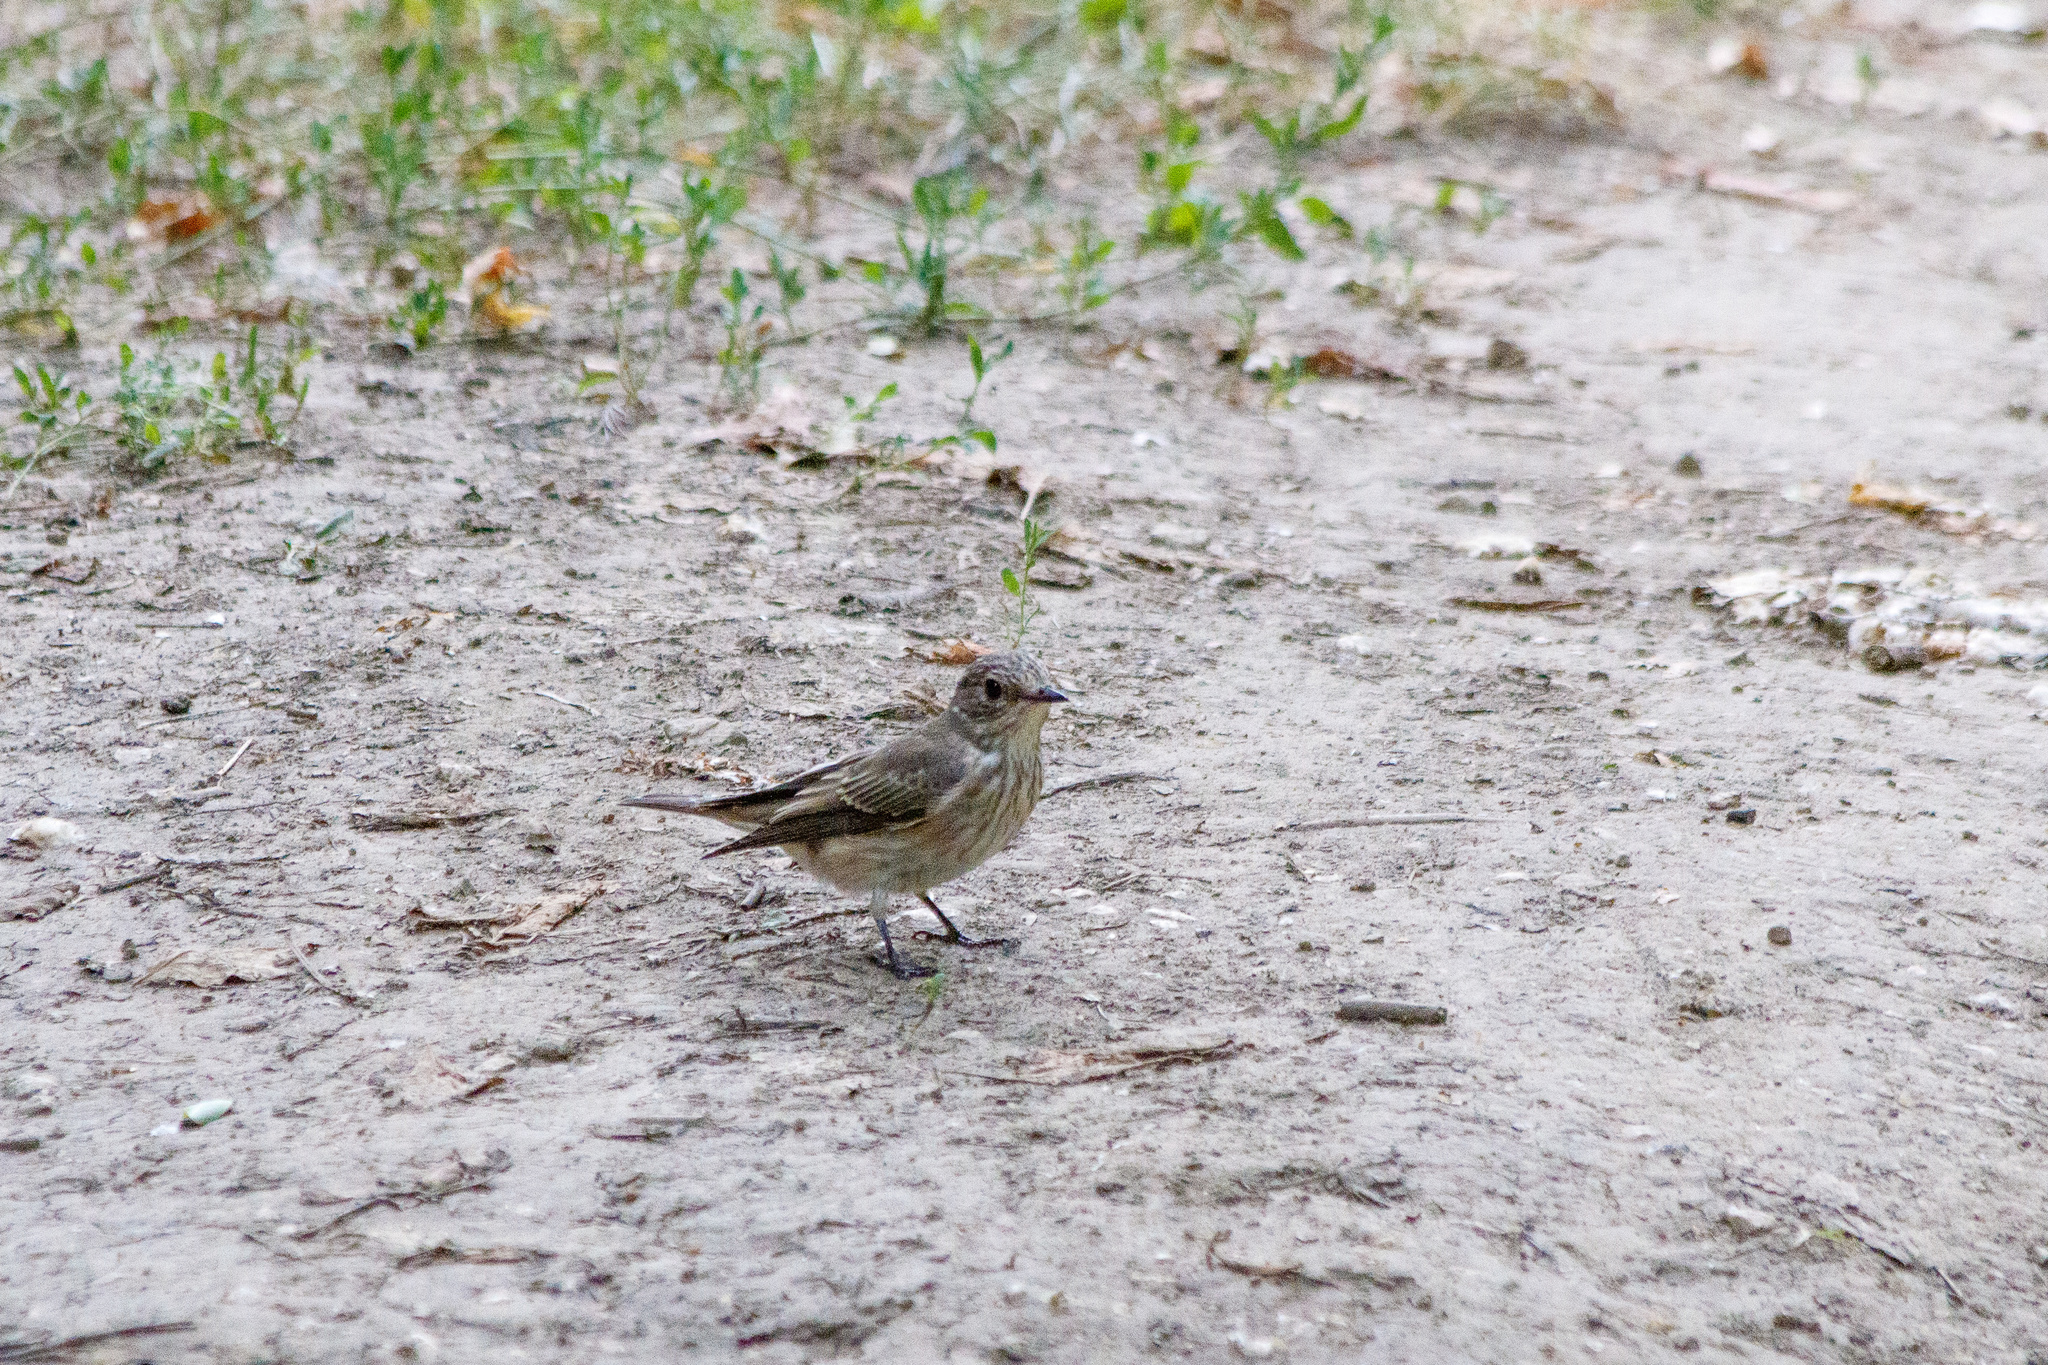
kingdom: Animalia
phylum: Chordata
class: Aves
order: Passeriformes
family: Muscicapidae
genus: Muscicapa
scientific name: Muscicapa striata
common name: Spotted flycatcher
